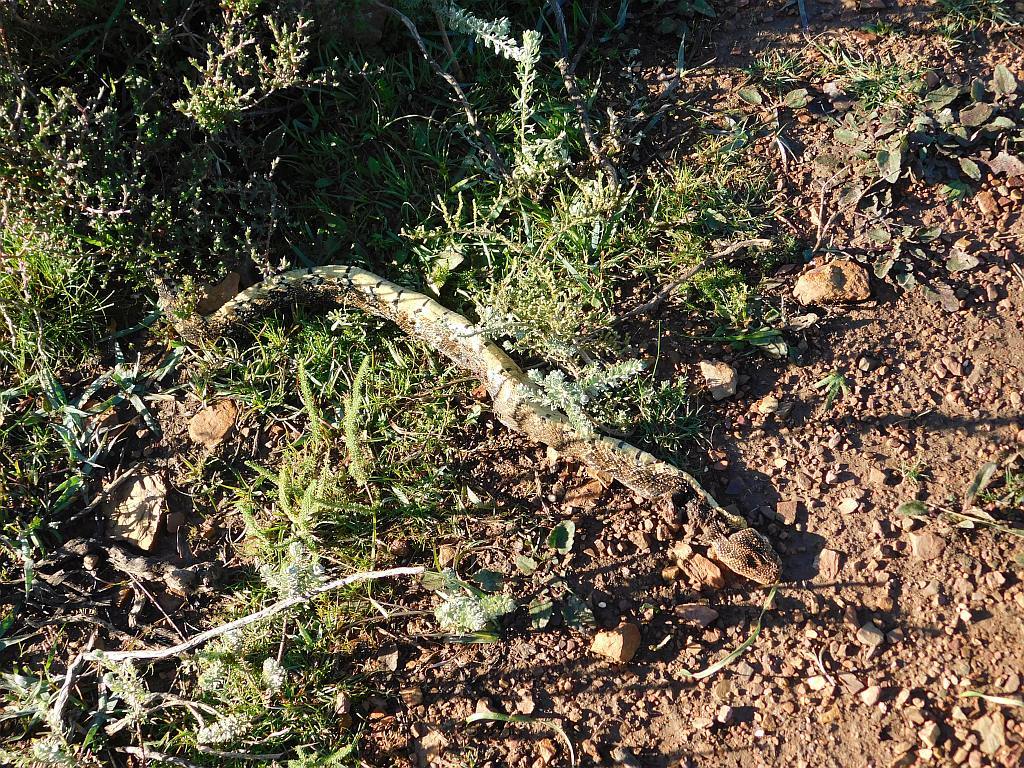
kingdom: Animalia
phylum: Chordata
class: Squamata
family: Viperidae
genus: Bitis
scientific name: Bitis arietans
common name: Puff adder
